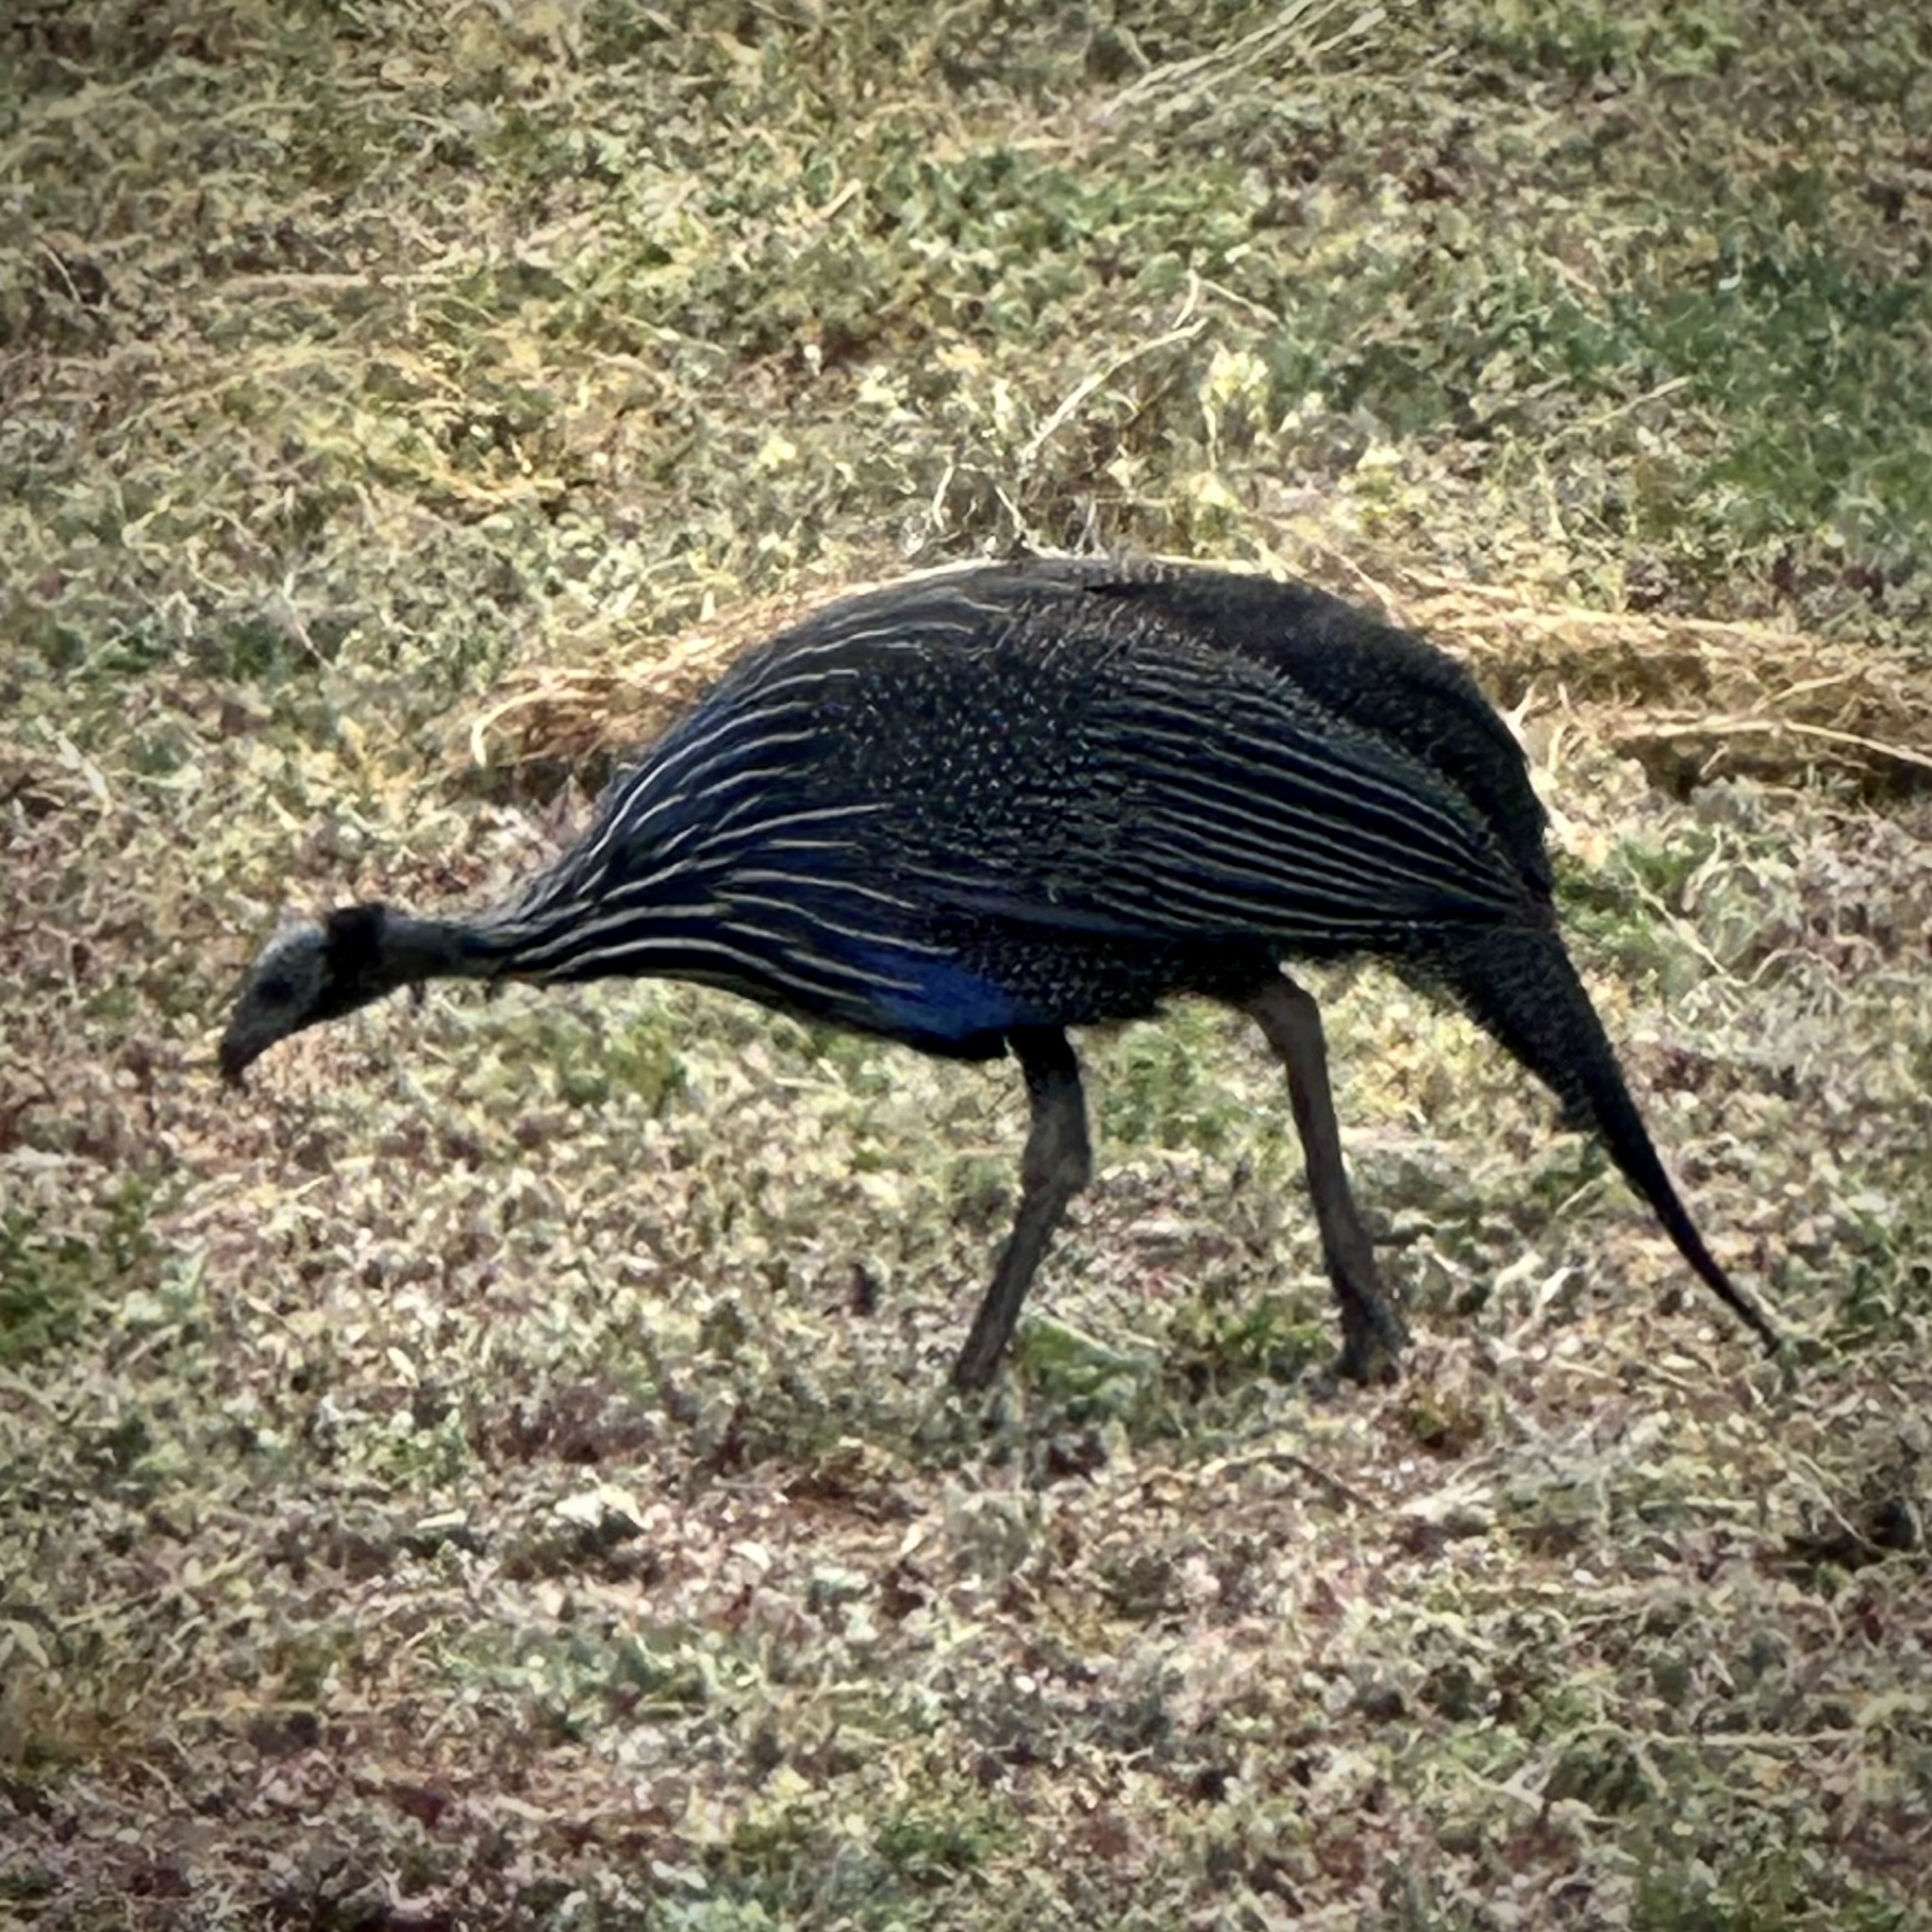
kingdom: Animalia
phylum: Chordata
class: Aves
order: Galliformes
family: Numididae
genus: Acryllium
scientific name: Acryllium vulturinum
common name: Vulturine guineafowl
